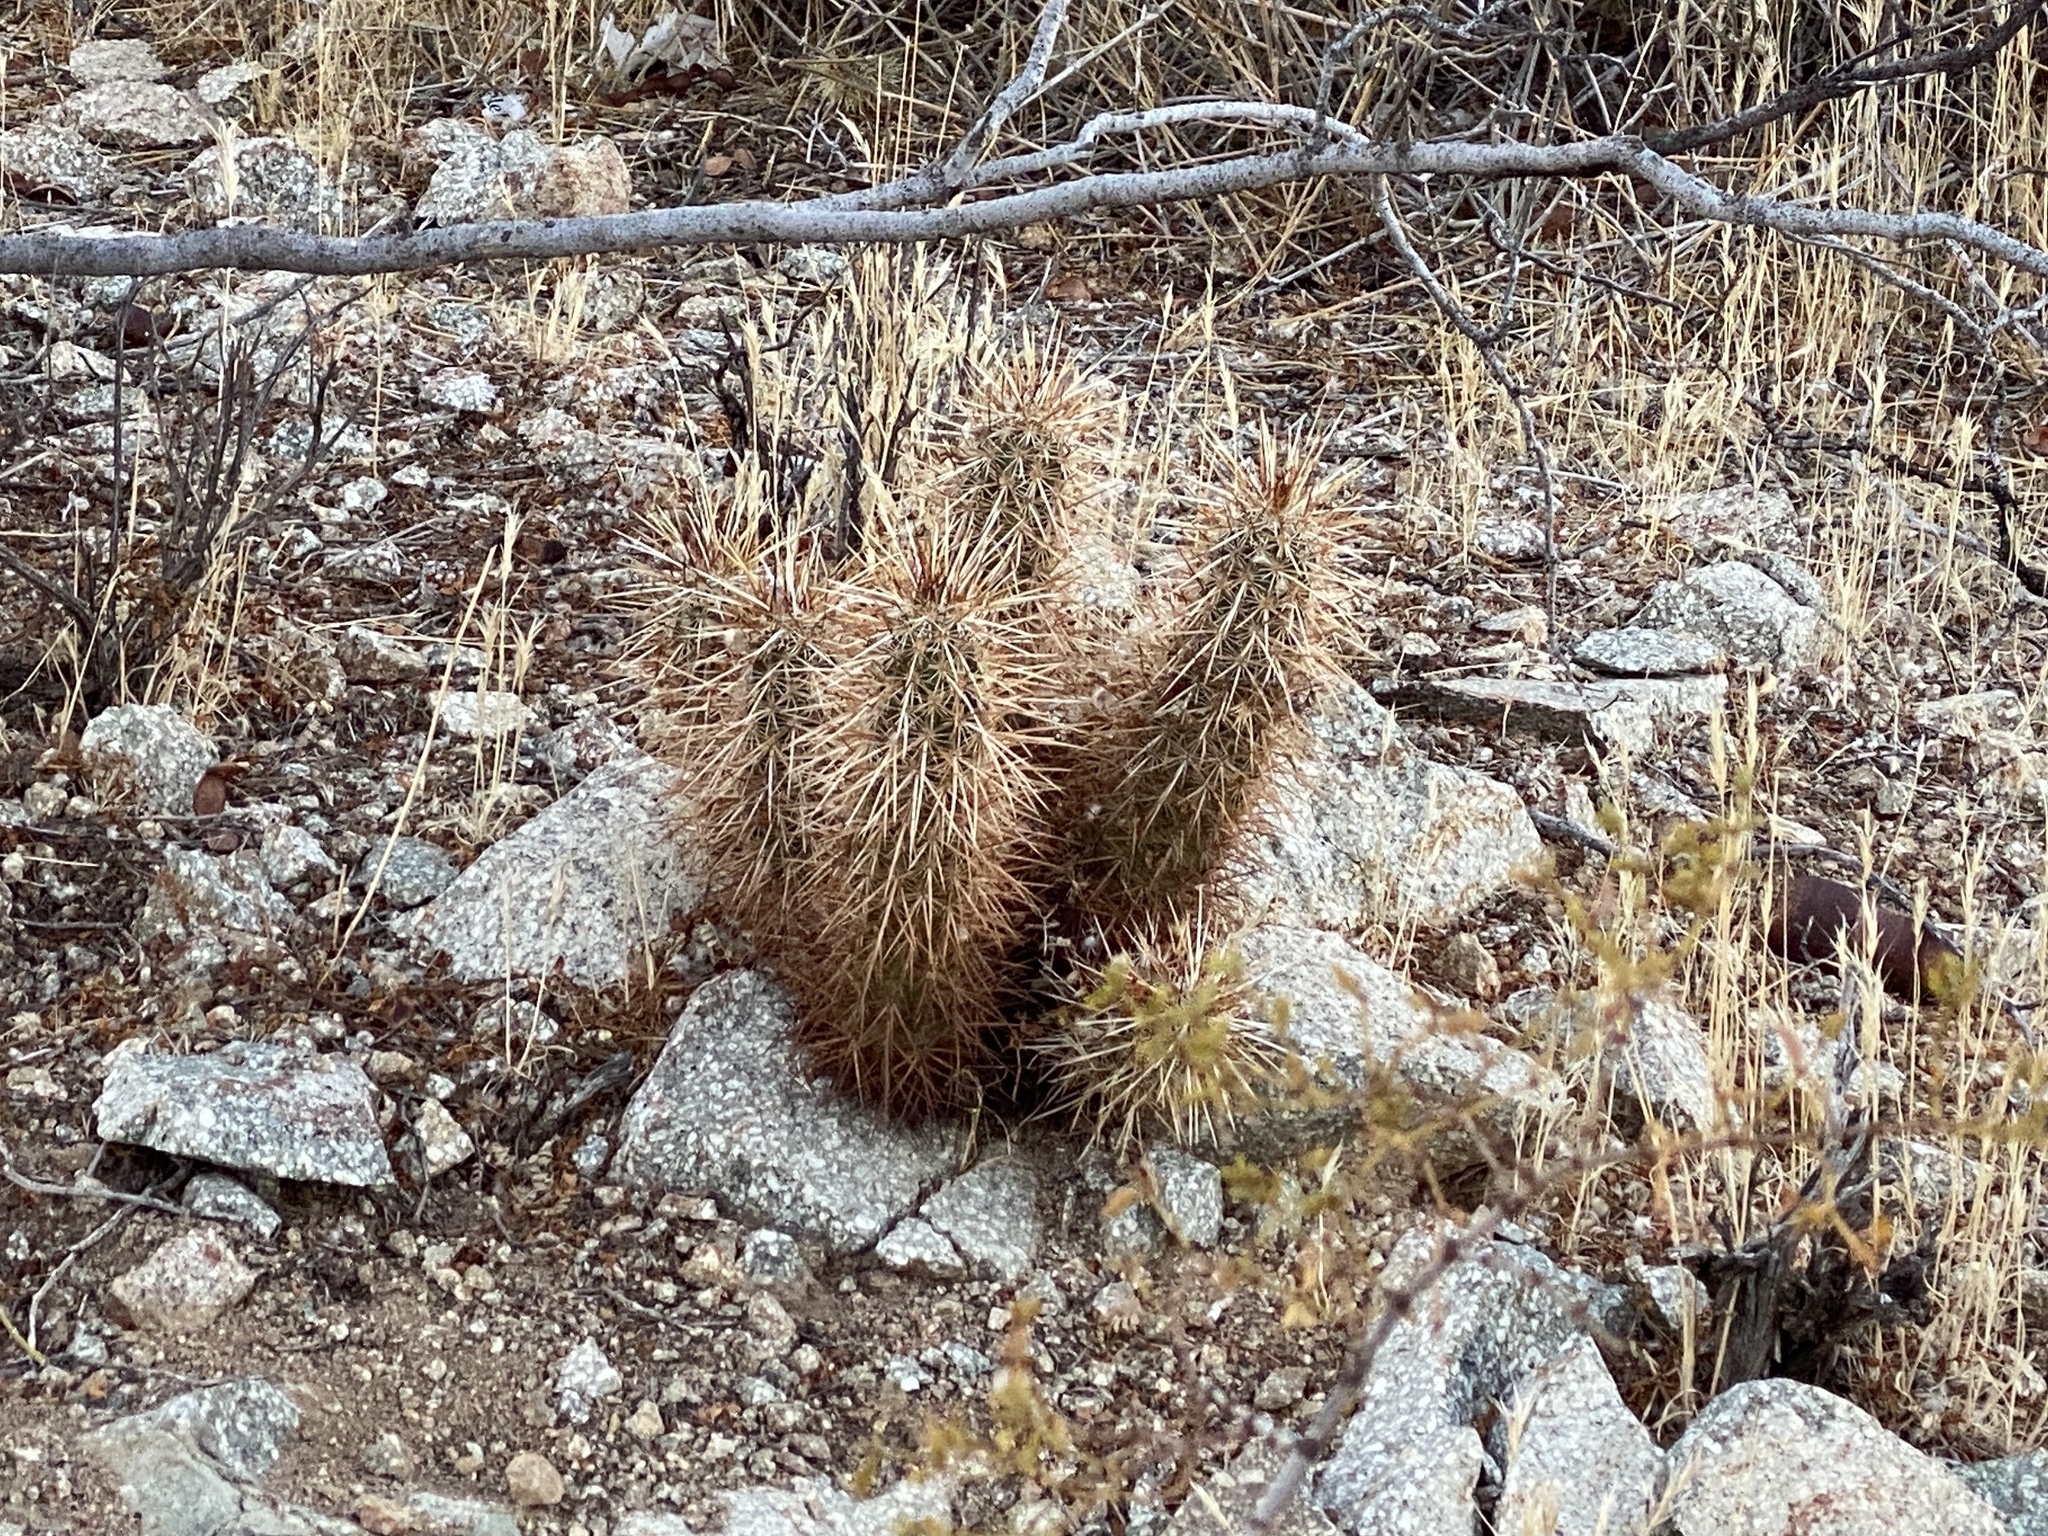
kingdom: Plantae
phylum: Tracheophyta
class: Magnoliopsida
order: Caryophyllales
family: Cactaceae
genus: Echinocereus
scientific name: Echinocereus engelmannii
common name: Engelmann's hedgehog cactus
